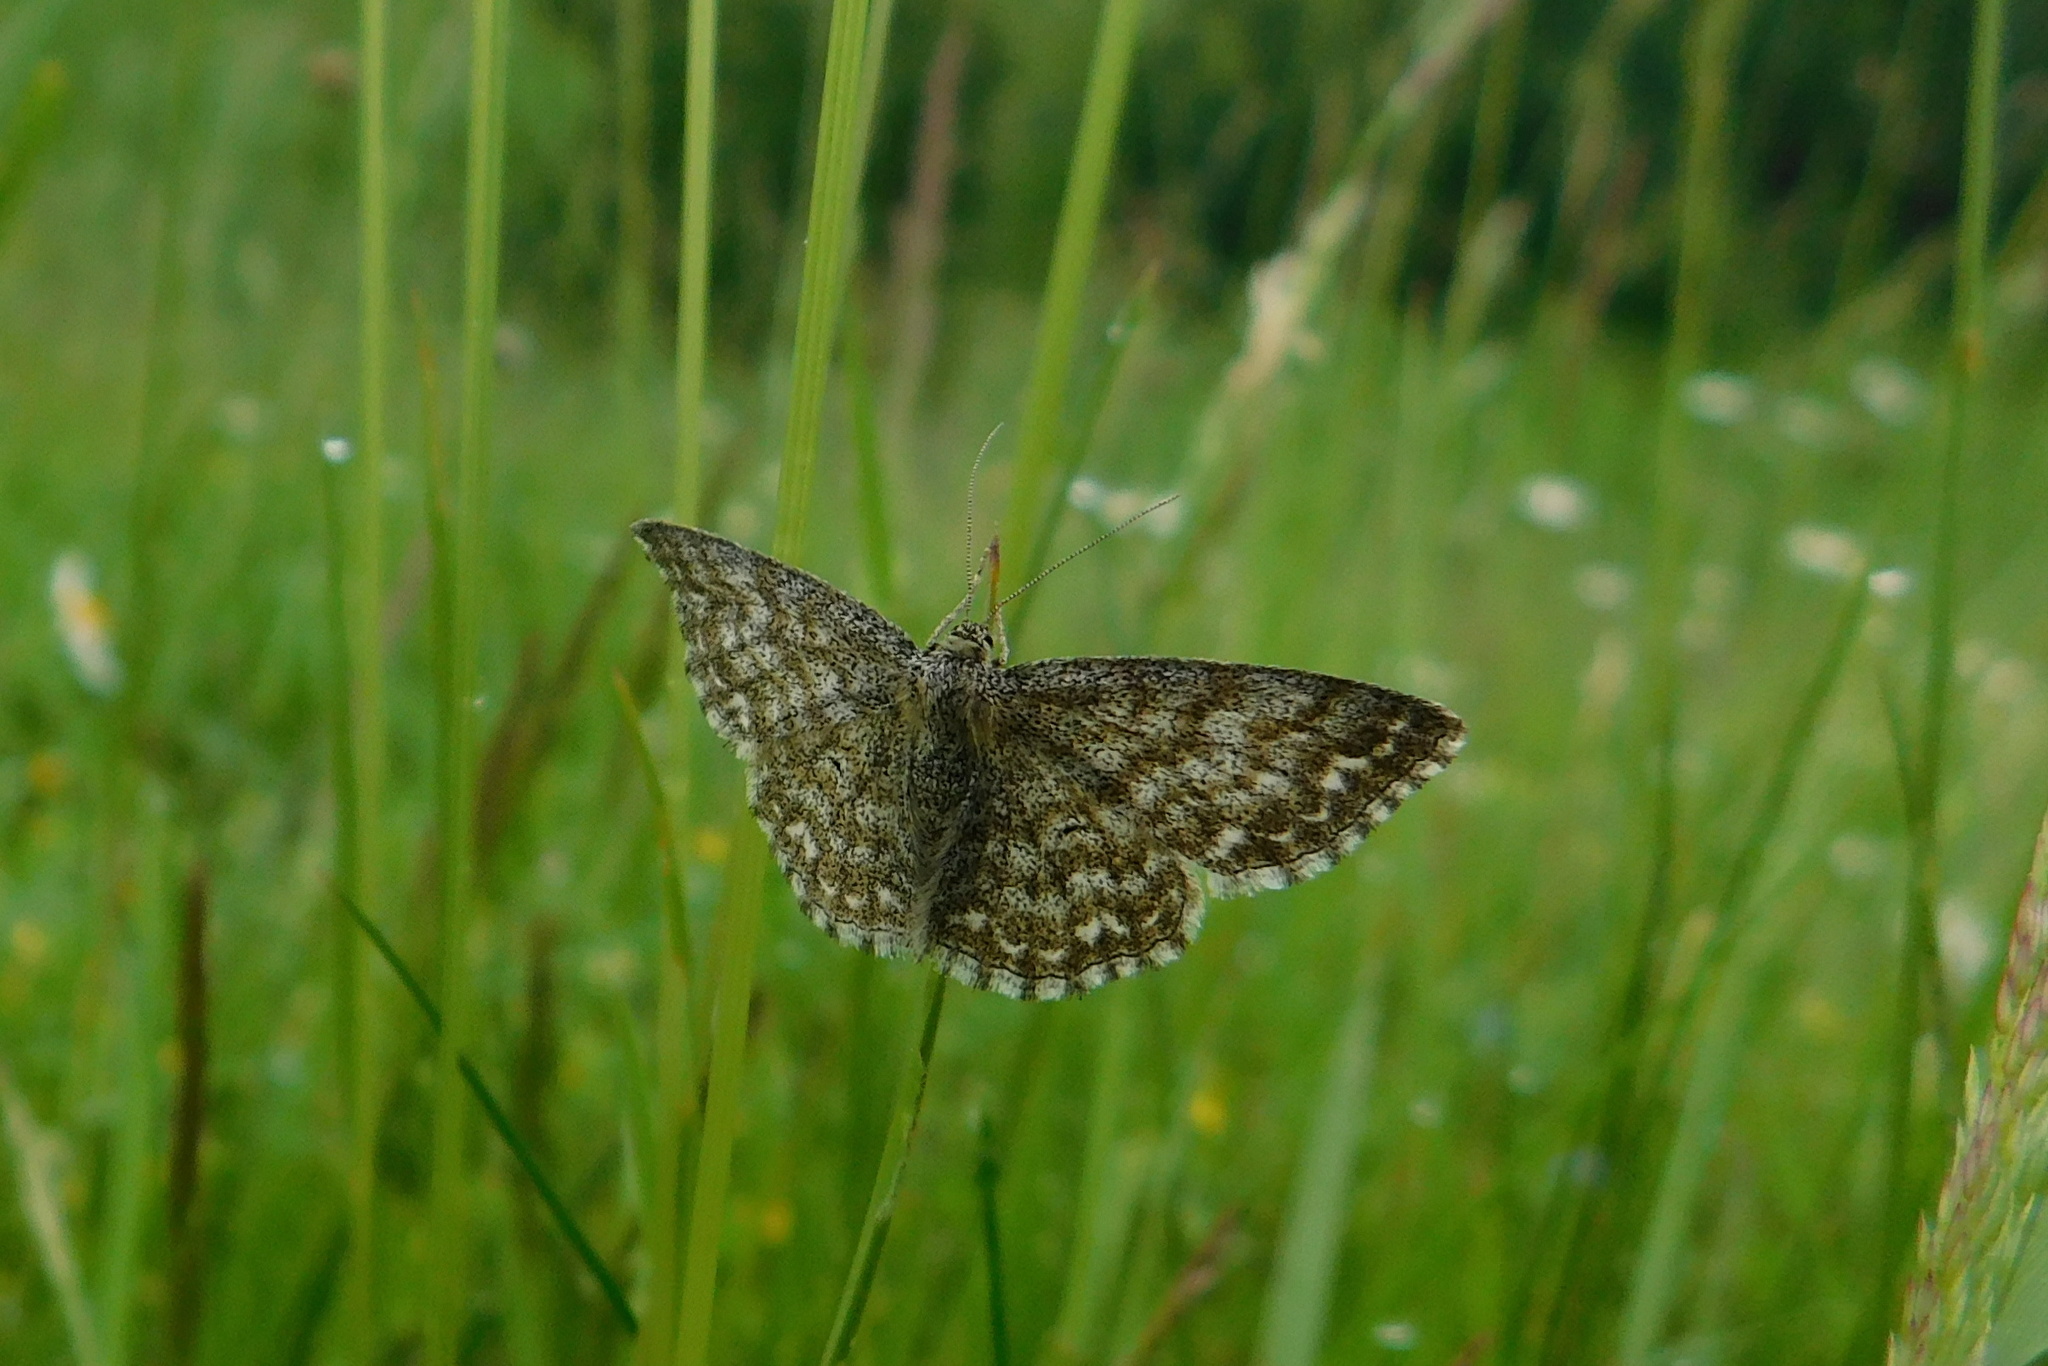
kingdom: Animalia
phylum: Arthropoda
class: Insecta
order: Lepidoptera
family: Geometridae
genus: Scopula
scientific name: Scopula immorata
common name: Lewes wave
